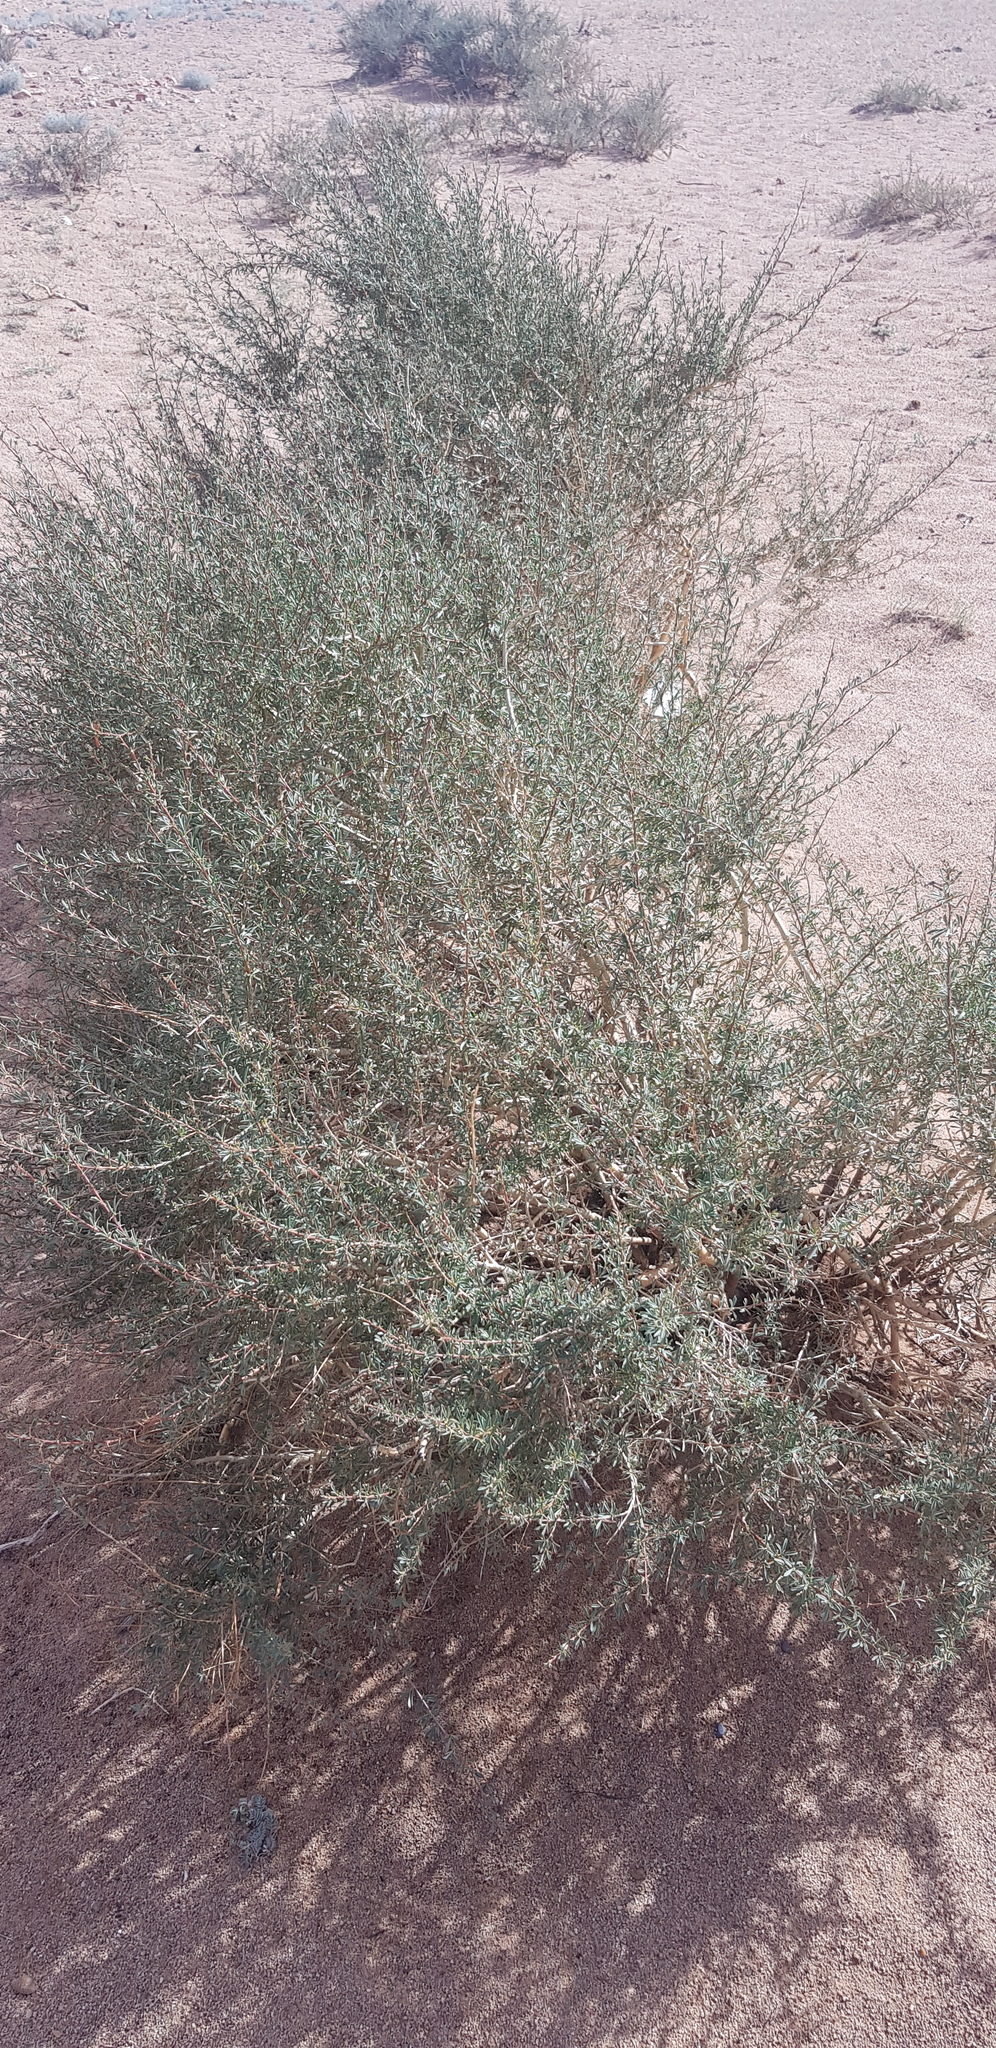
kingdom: Plantae
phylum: Tracheophyta
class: Magnoliopsida
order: Fabales
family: Fabaceae
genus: Caragana
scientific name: Caragana leucophloea
